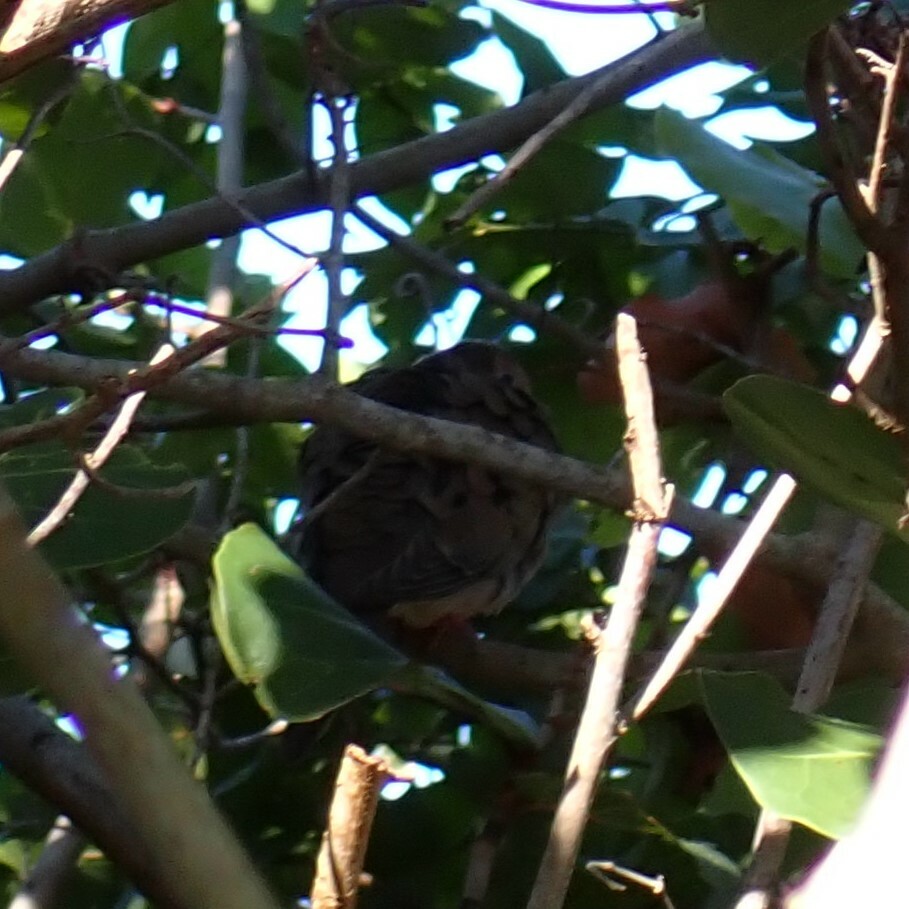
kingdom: Animalia
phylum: Chordata
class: Aves
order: Columbiformes
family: Columbidae
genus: Zenaida
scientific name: Zenaida macroura
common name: Mourning dove
